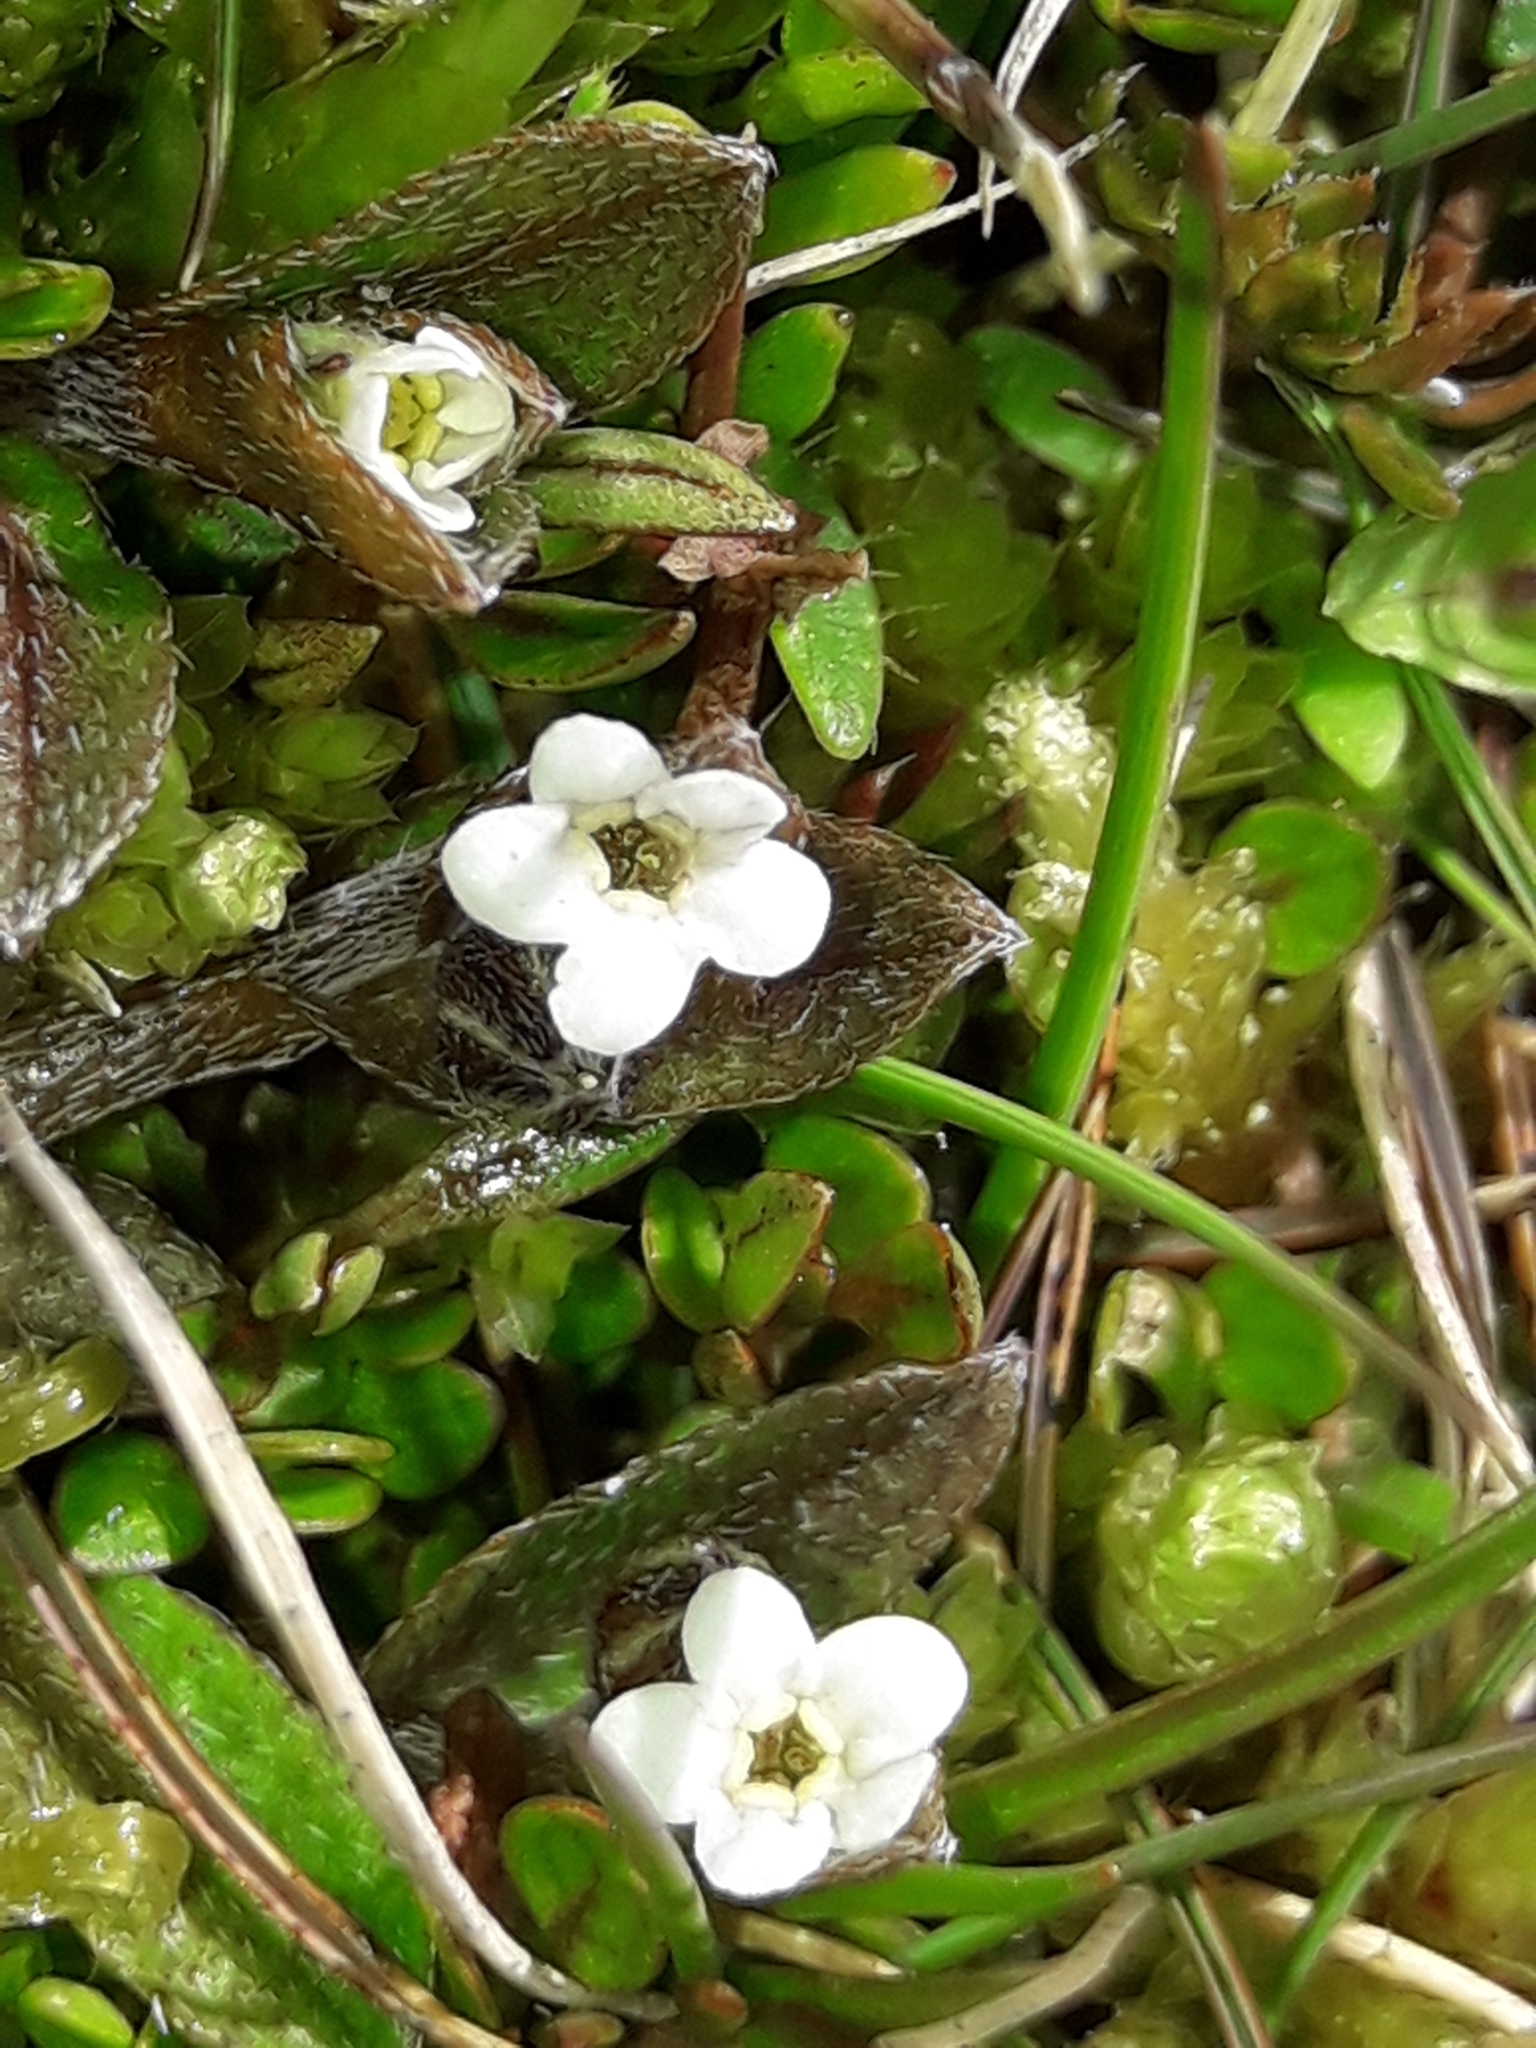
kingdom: Plantae
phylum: Tracheophyta
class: Magnoliopsida
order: Boraginales
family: Boraginaceae
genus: Myosotis
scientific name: Myosotis bryonoma
